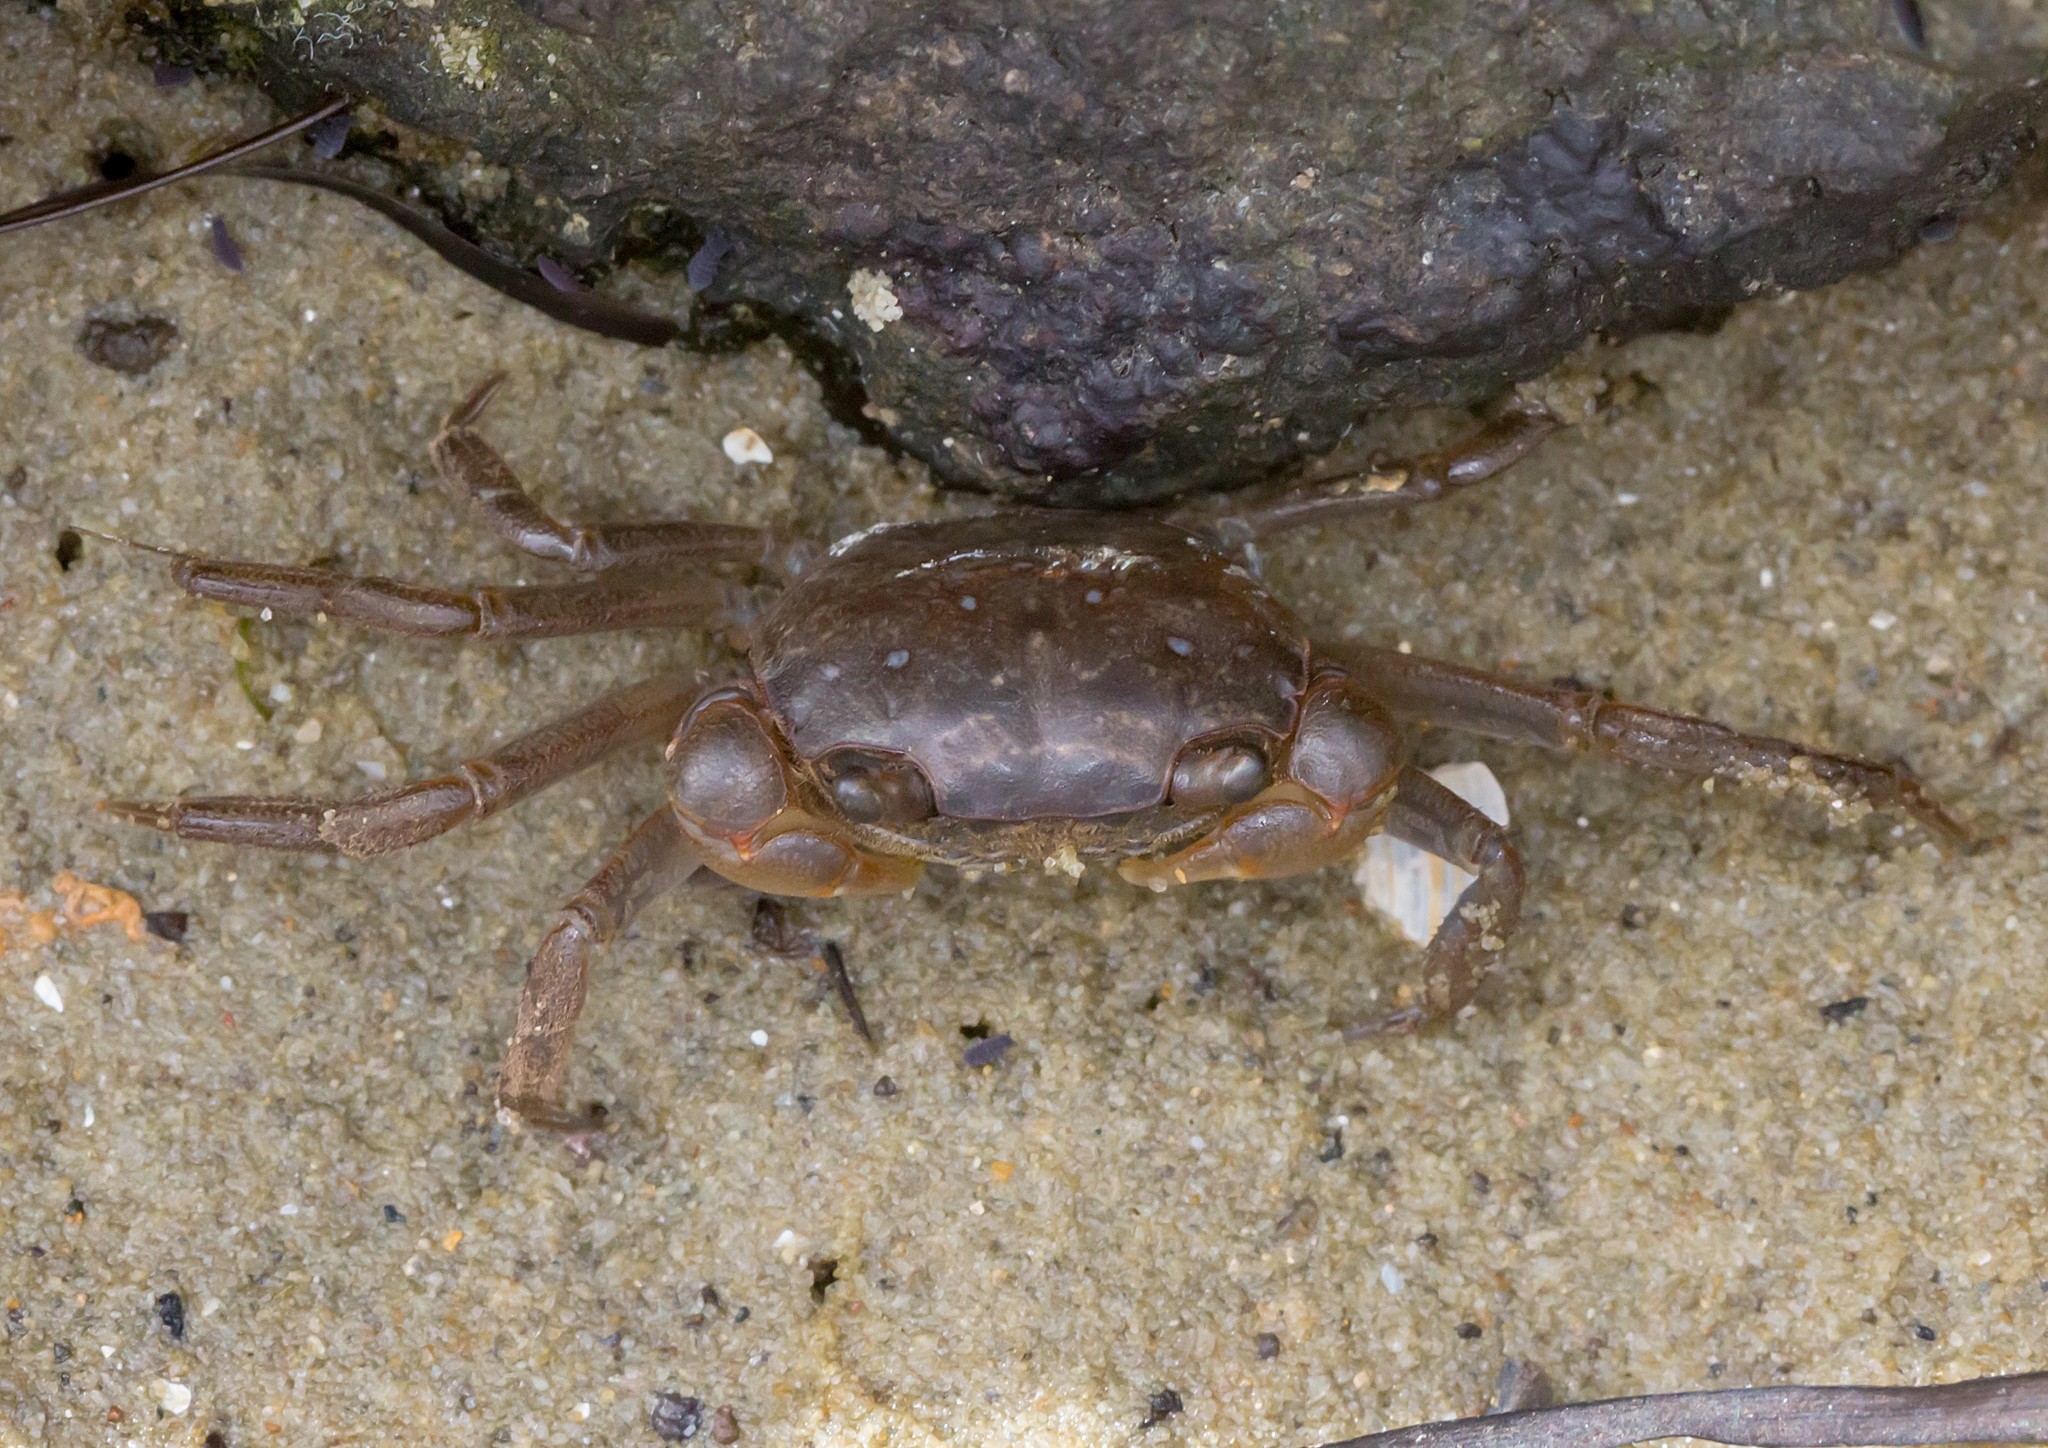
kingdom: Animalia
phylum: Arthropoda
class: Malacostraca
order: Decapoda
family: Varunidae
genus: Helograpsus
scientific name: Helograpsus haswellianus
